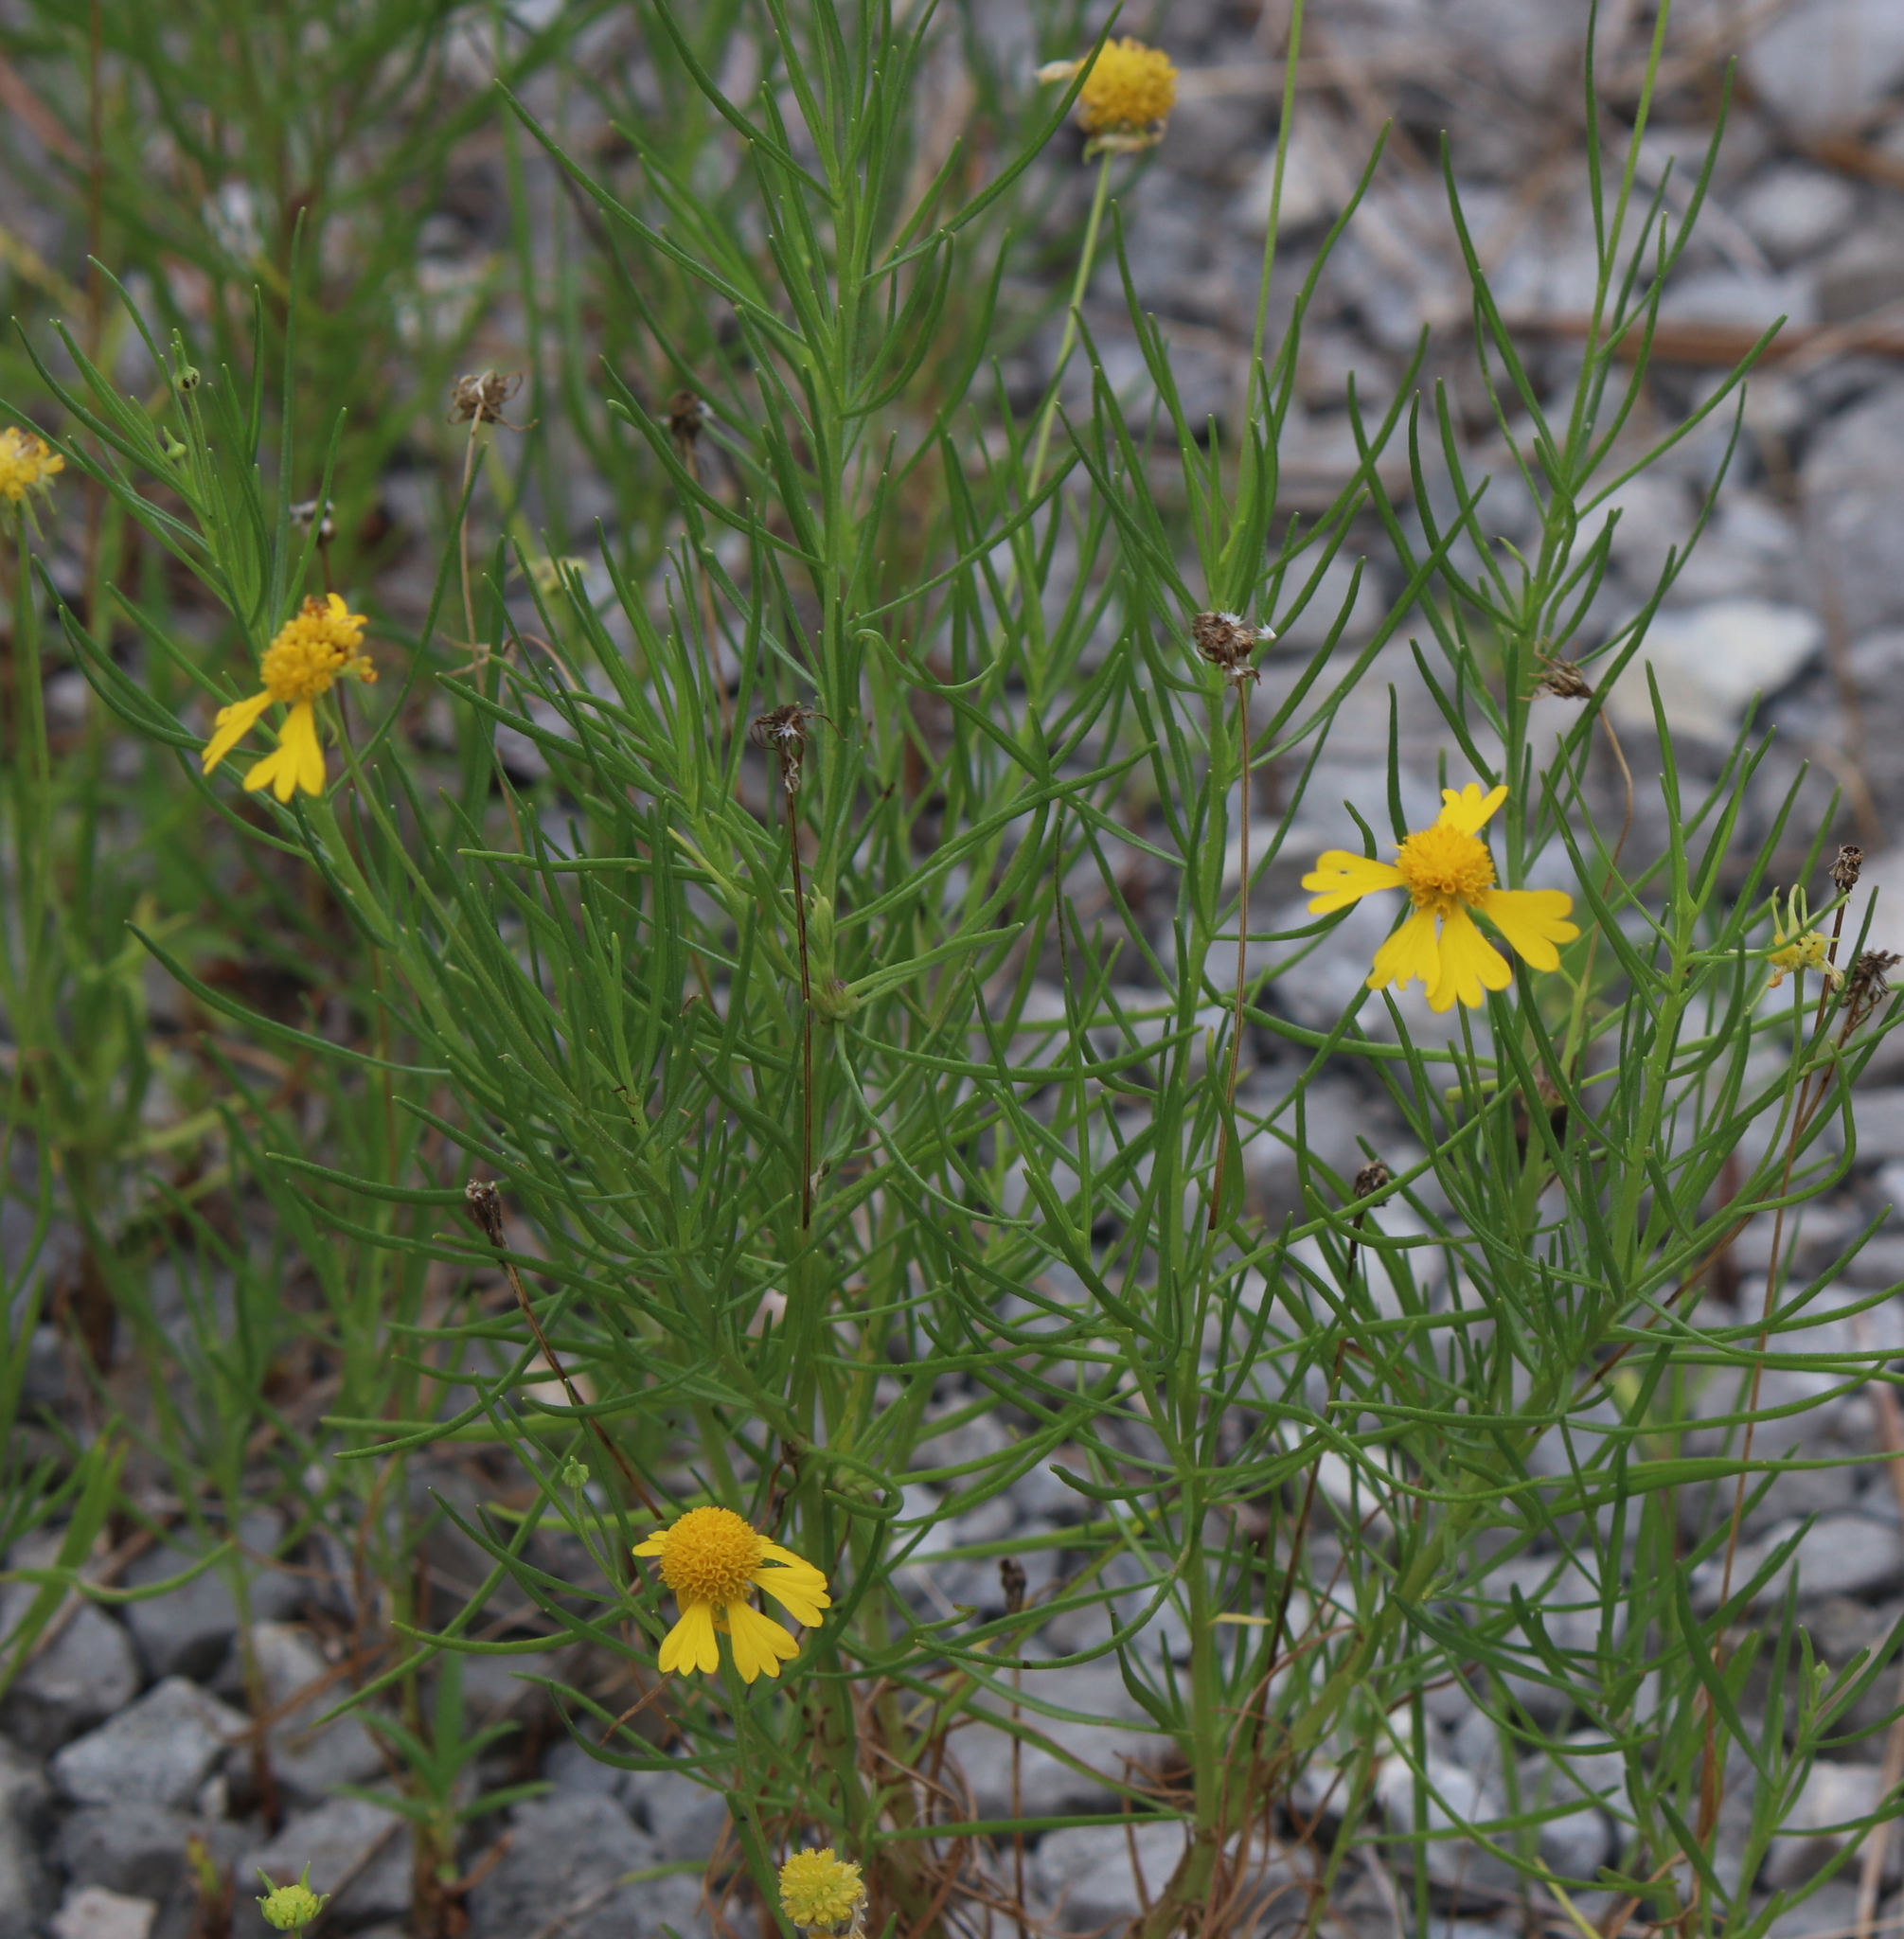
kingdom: Plantae
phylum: Tracheophyta
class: Magnoliopsida
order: Asterales
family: Asteraceae
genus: Helenium
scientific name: Helenium amarum
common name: Bitter sneezeweed
